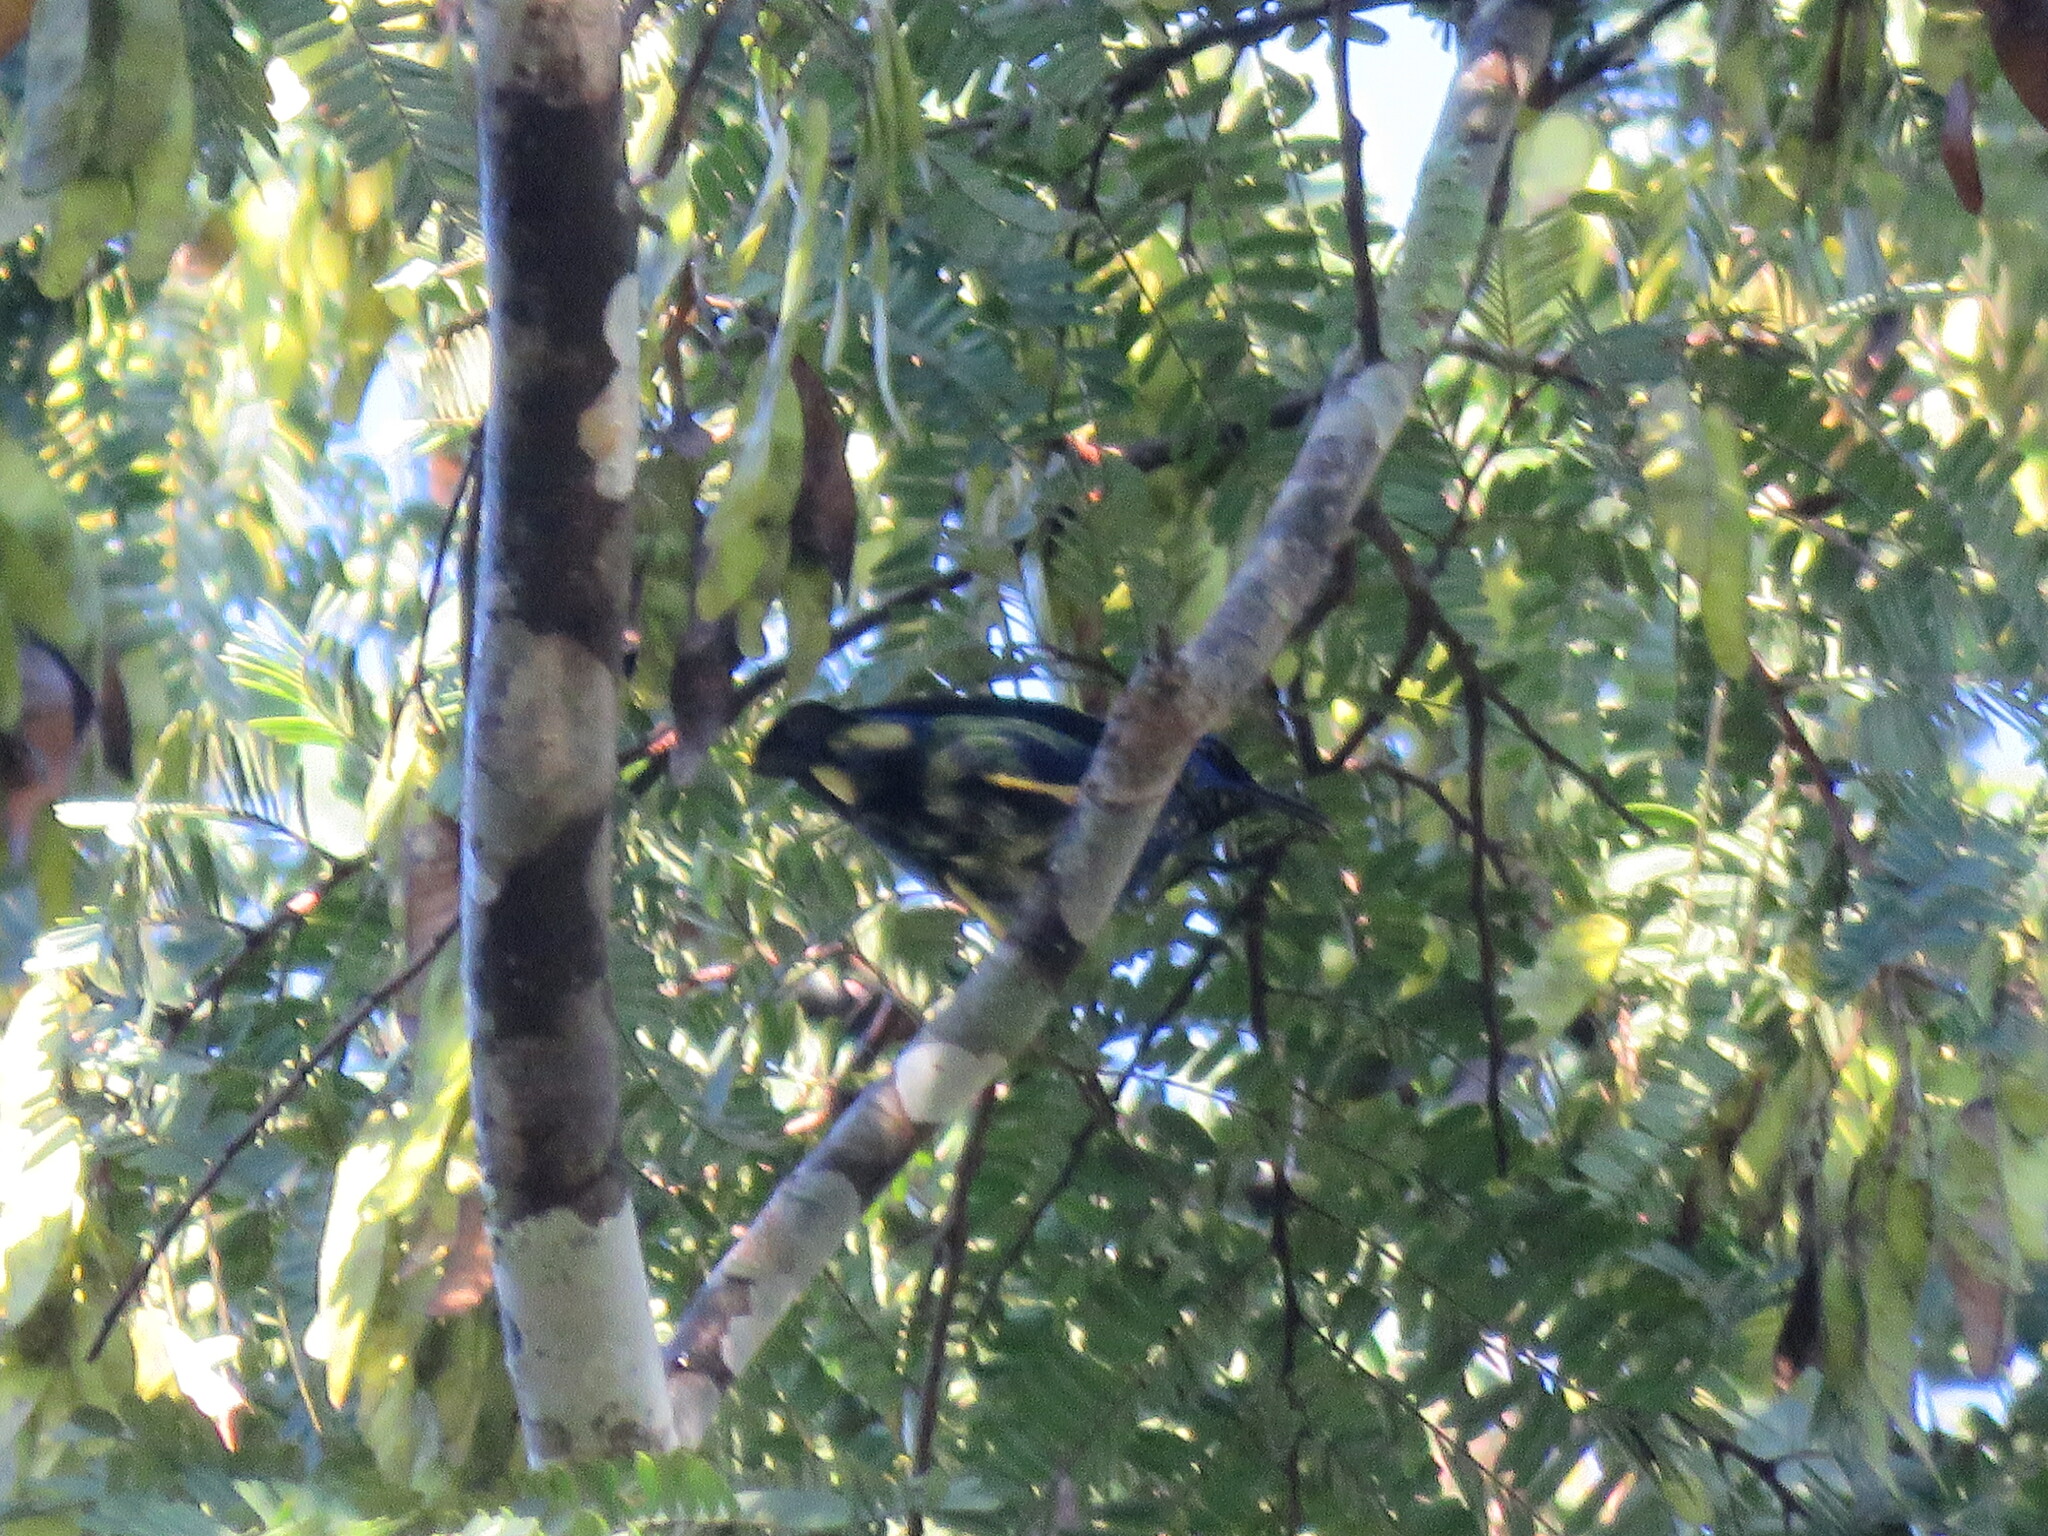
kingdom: Animalia
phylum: Chordata
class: Aves
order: Passeriformes
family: Thraupidae
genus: Cyanerpes
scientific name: Cyanerpes caeruleus
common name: Purple honeycreeper
